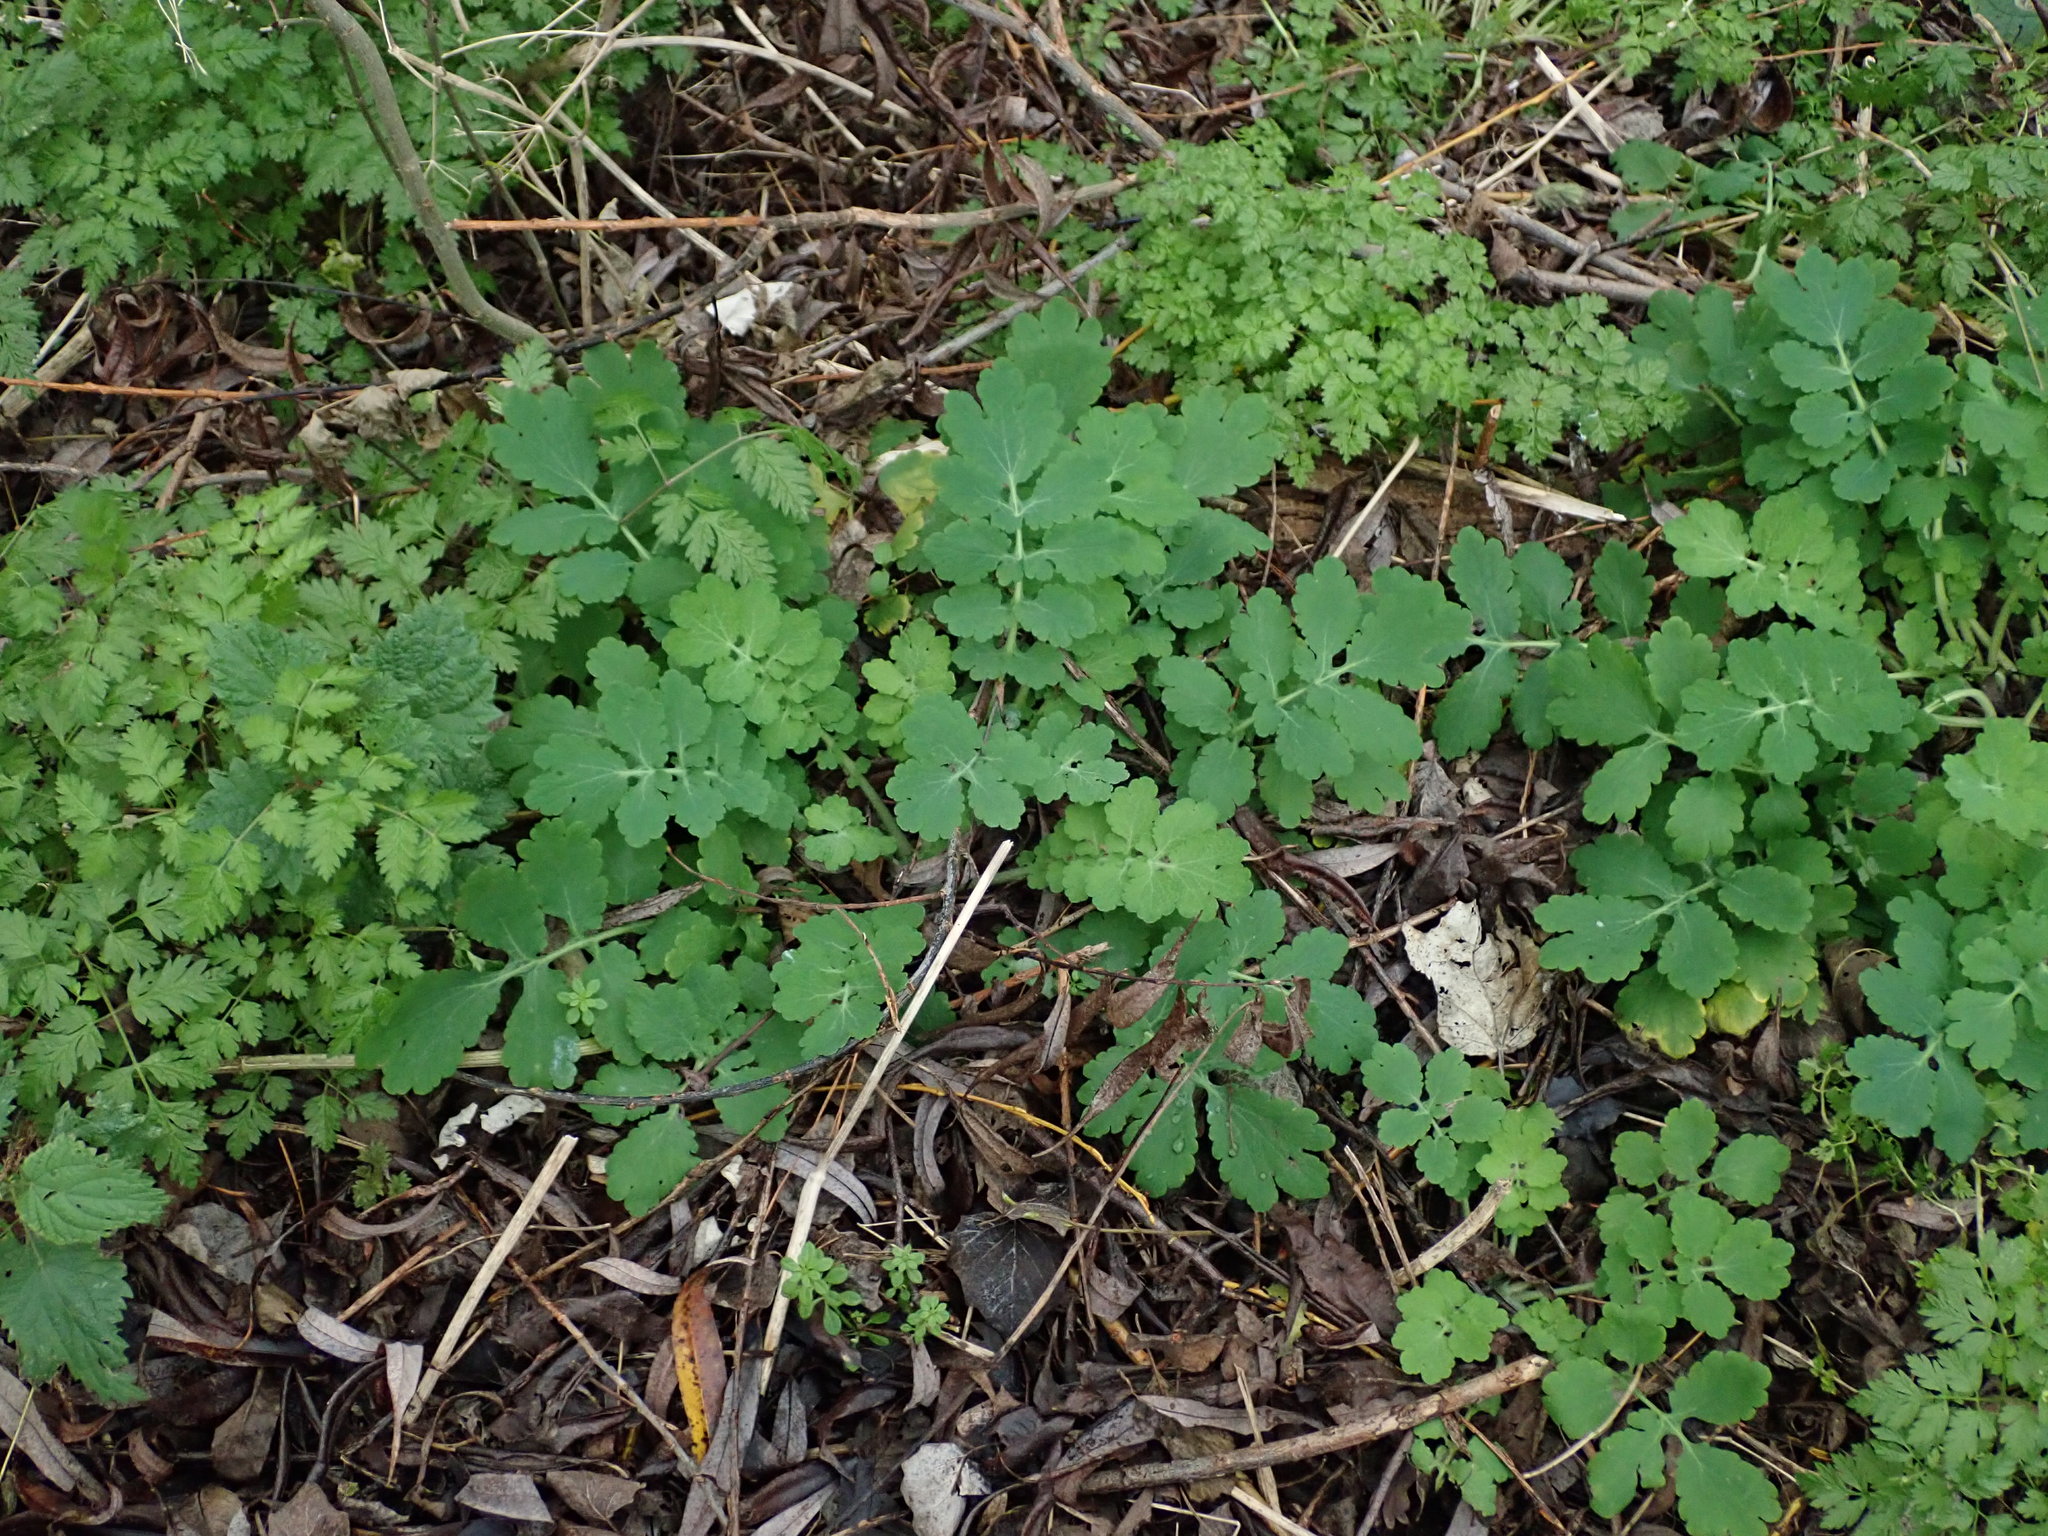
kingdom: Plantae
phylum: Tracheophyta
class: Magnoliopsida
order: Ranunculales
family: Papaveraceae
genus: Chelidonium
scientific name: Chelidonium majus
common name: Greater celandine
